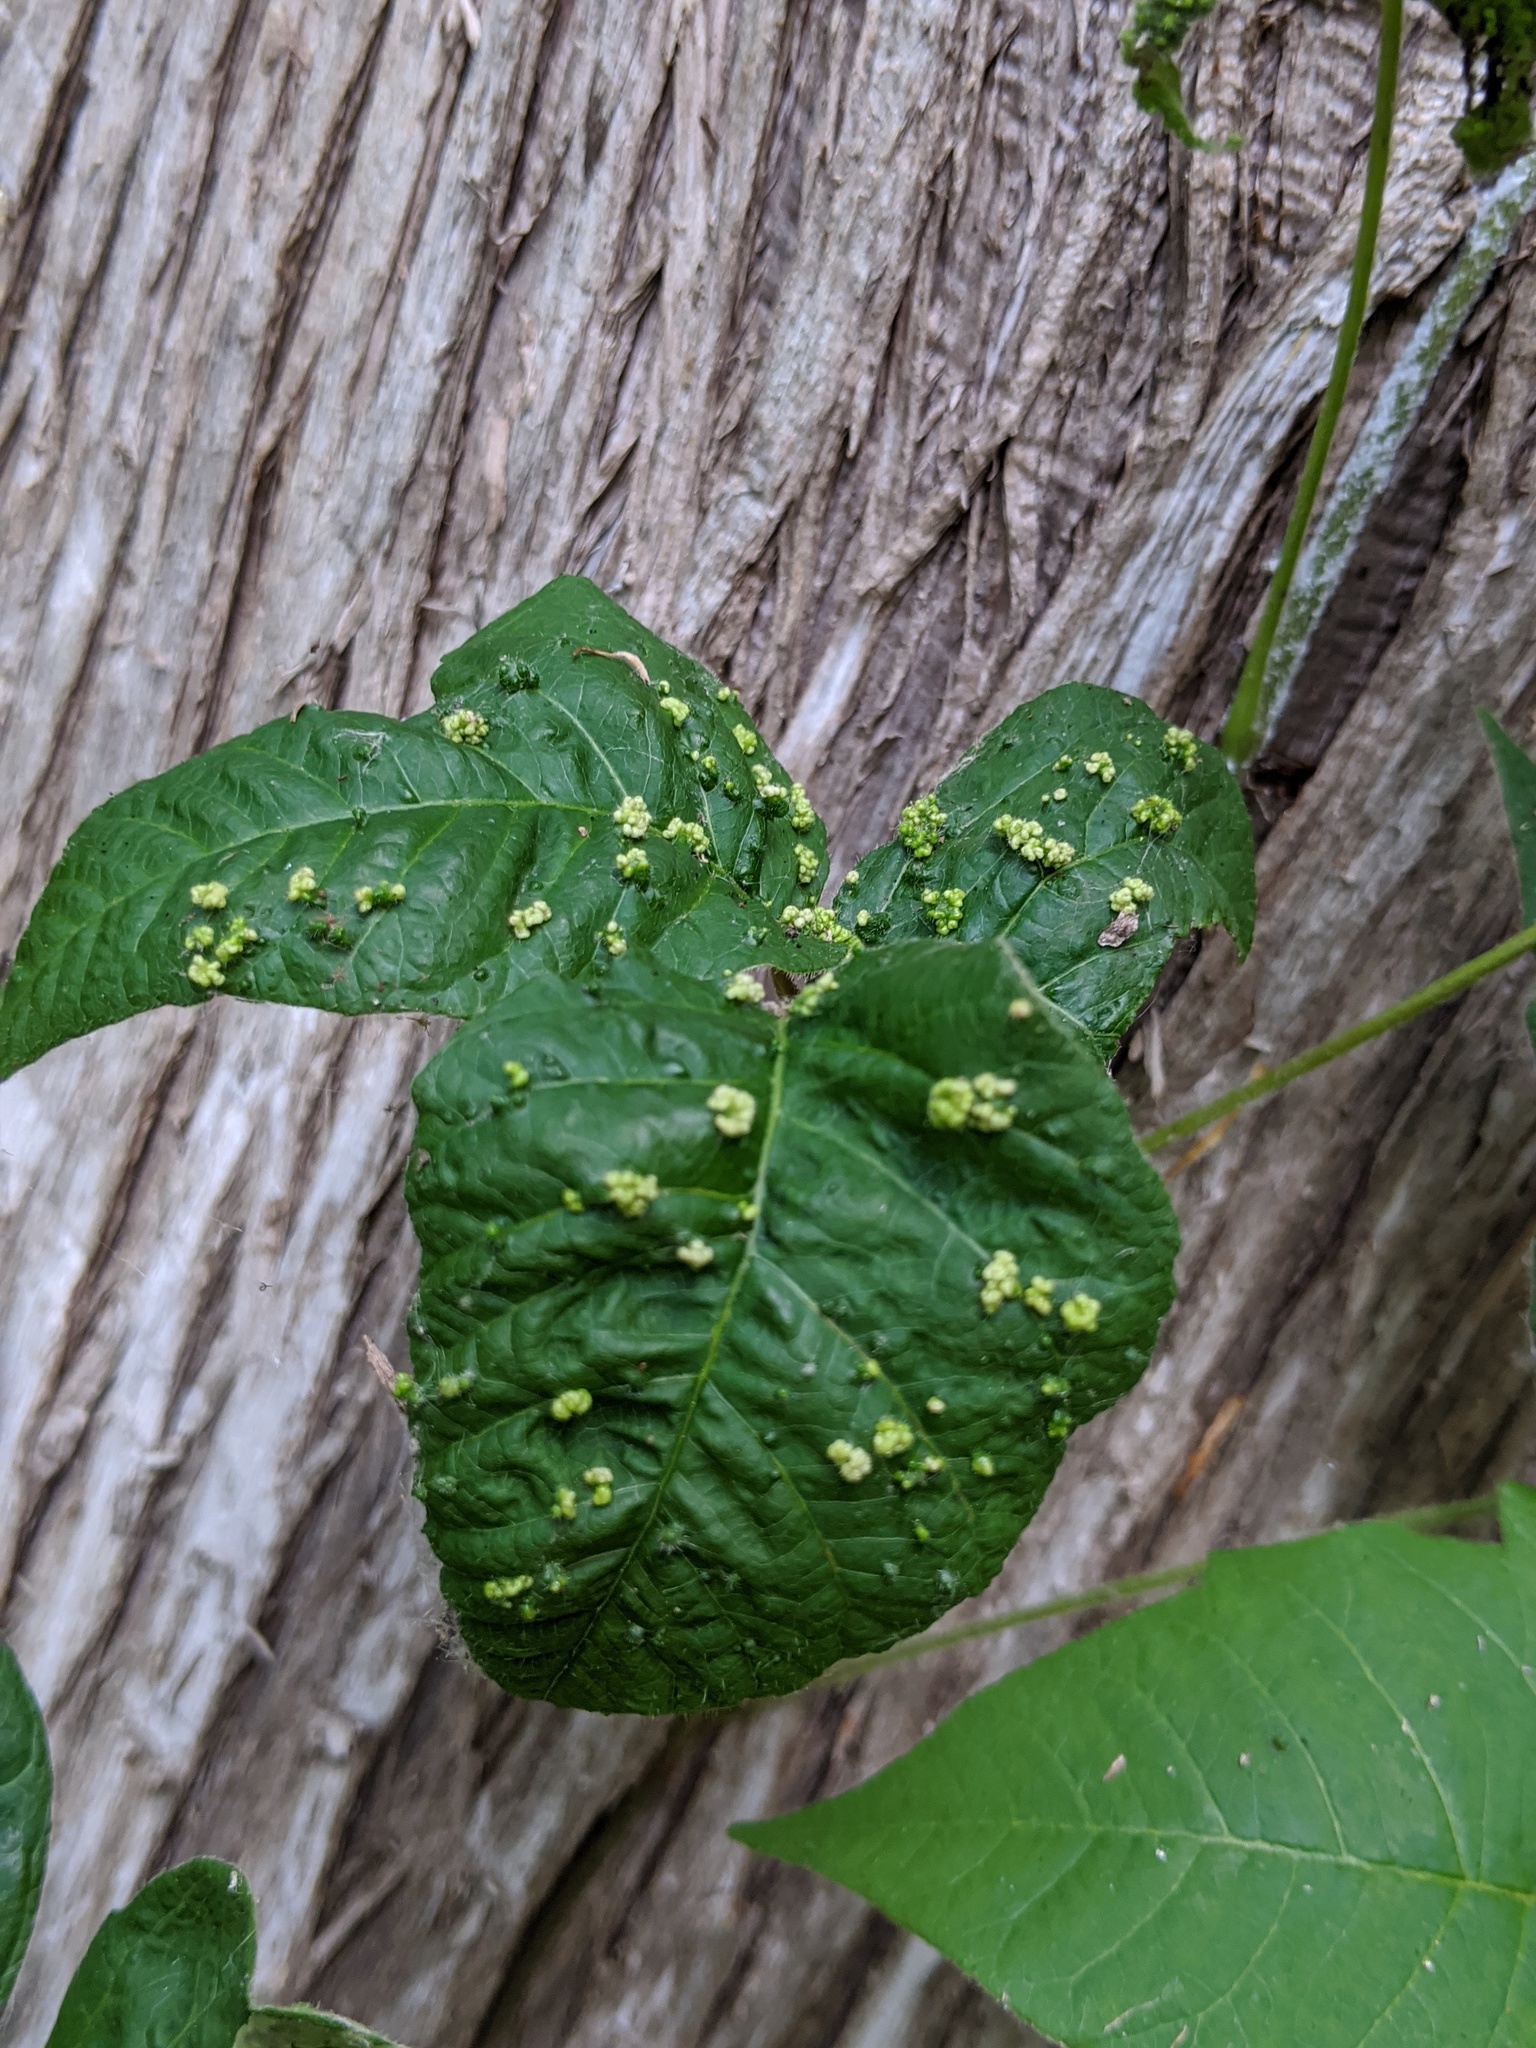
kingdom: Animalia
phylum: Arthropoda
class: Arachnida
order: Trombidiformes
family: Eriophyidae
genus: Aculops
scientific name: Aculops
